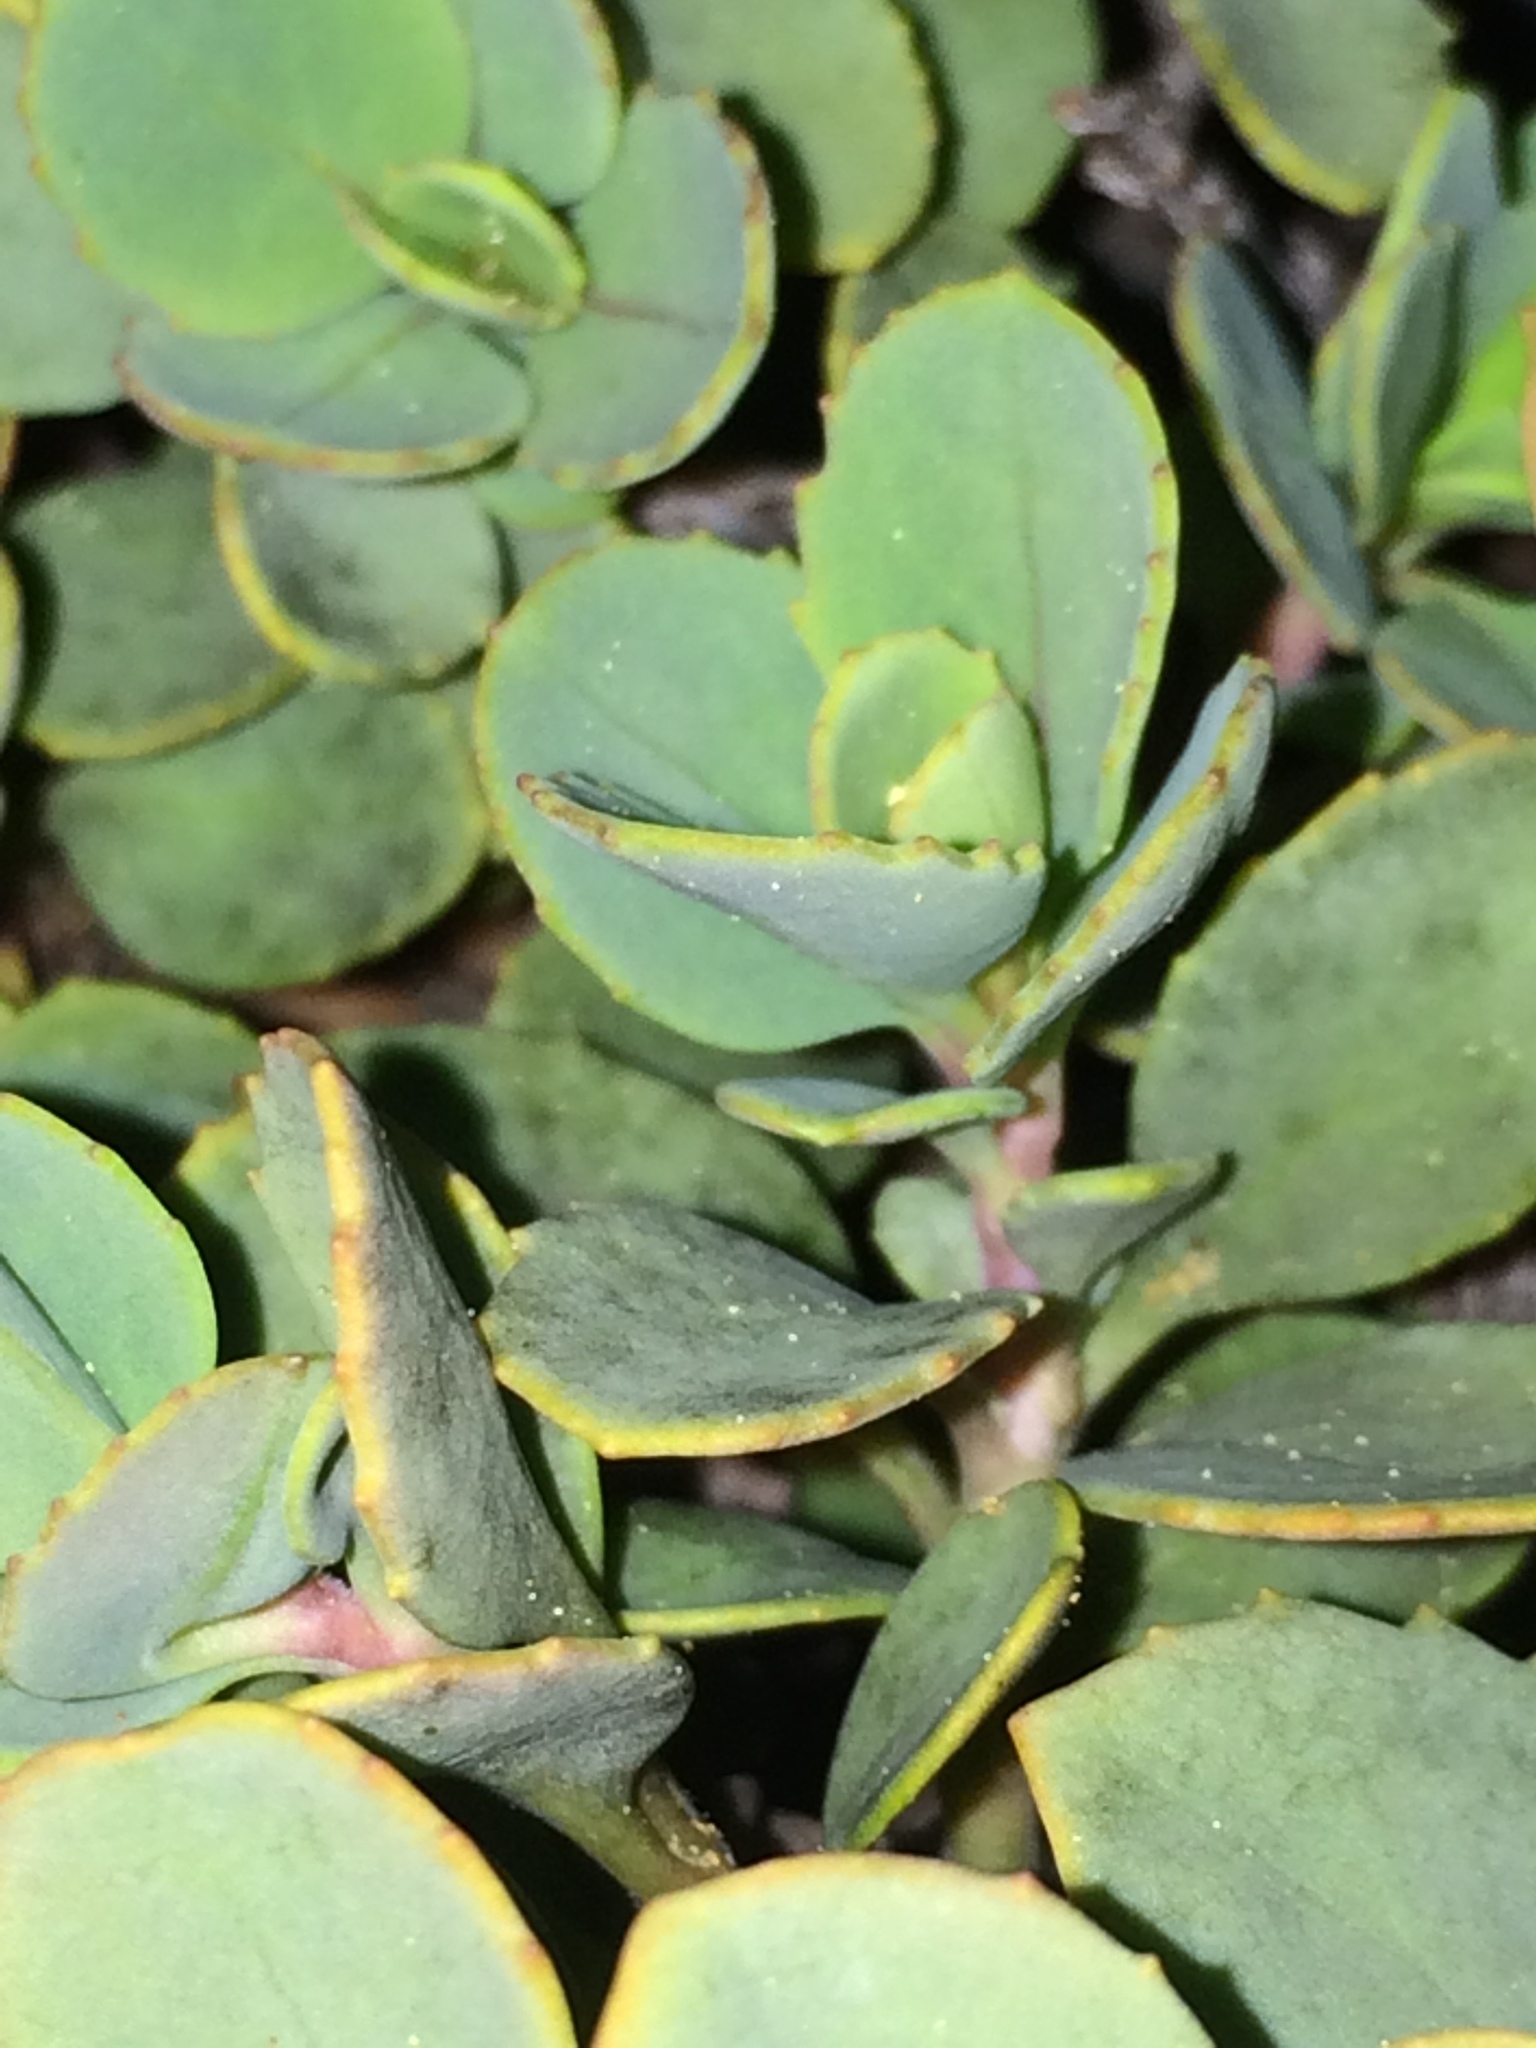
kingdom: Plantae
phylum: Tracheophyta
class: Magnoliopsida
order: Lamiales
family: Plantaginaceae
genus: Penstemon
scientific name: Penstemon rupicola
